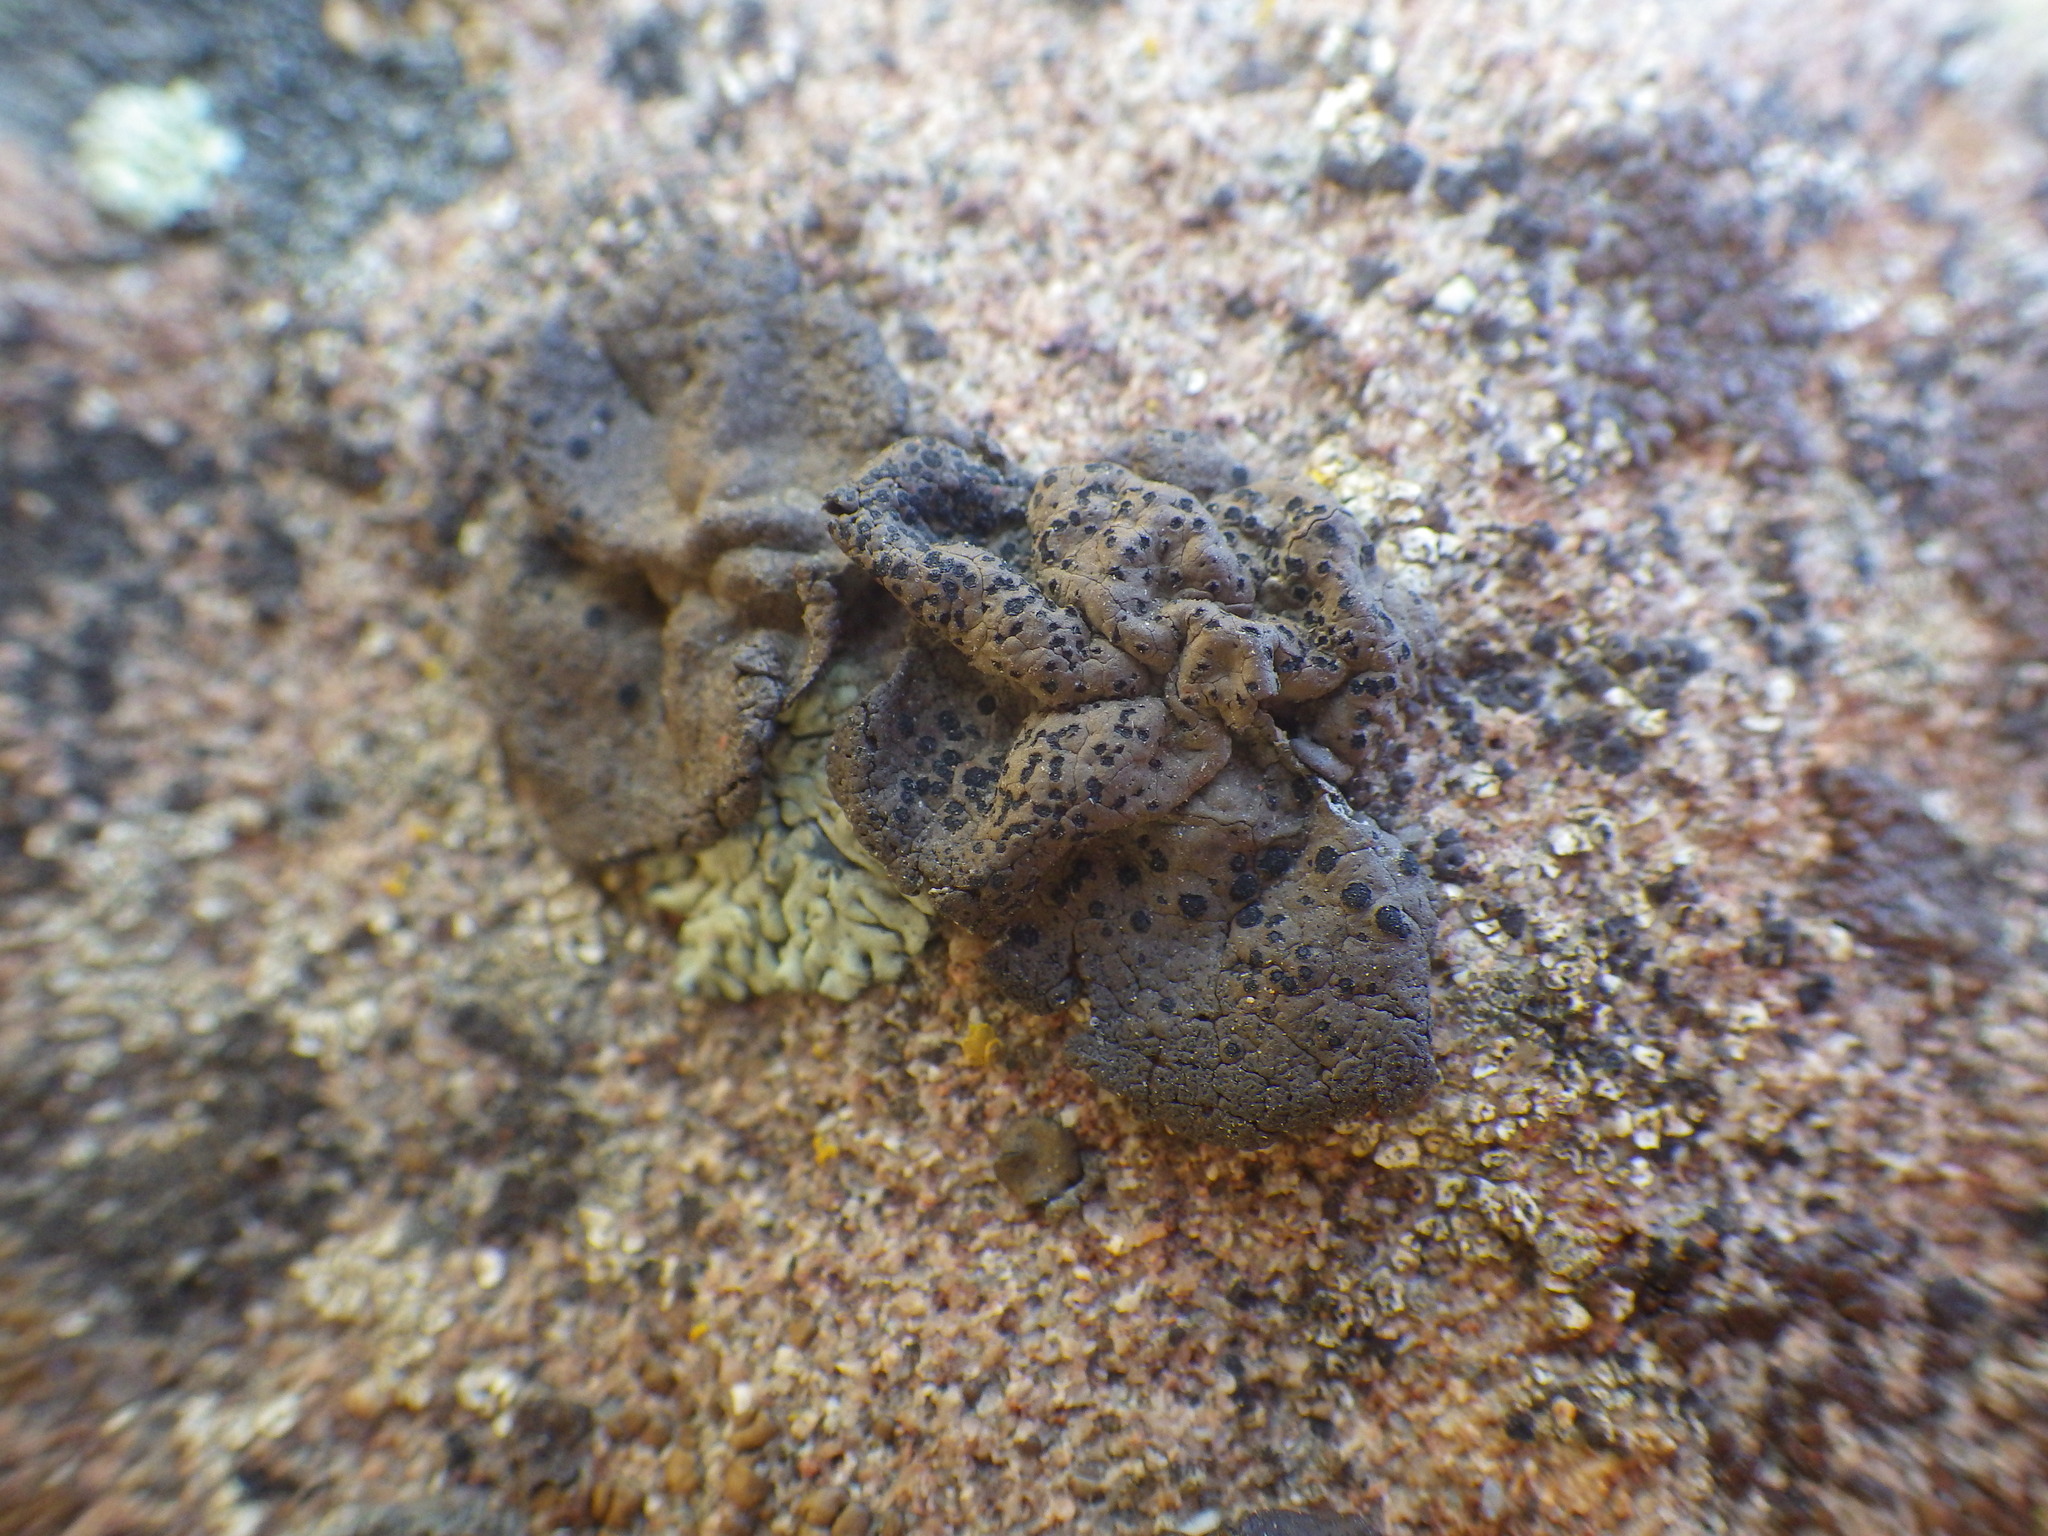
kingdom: Fungi
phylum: Ascomycota
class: Lecanoromycetes
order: Umbilicariales
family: Umbilicariaceae
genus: Umbilicaria
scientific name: Umbilicaria phaea
